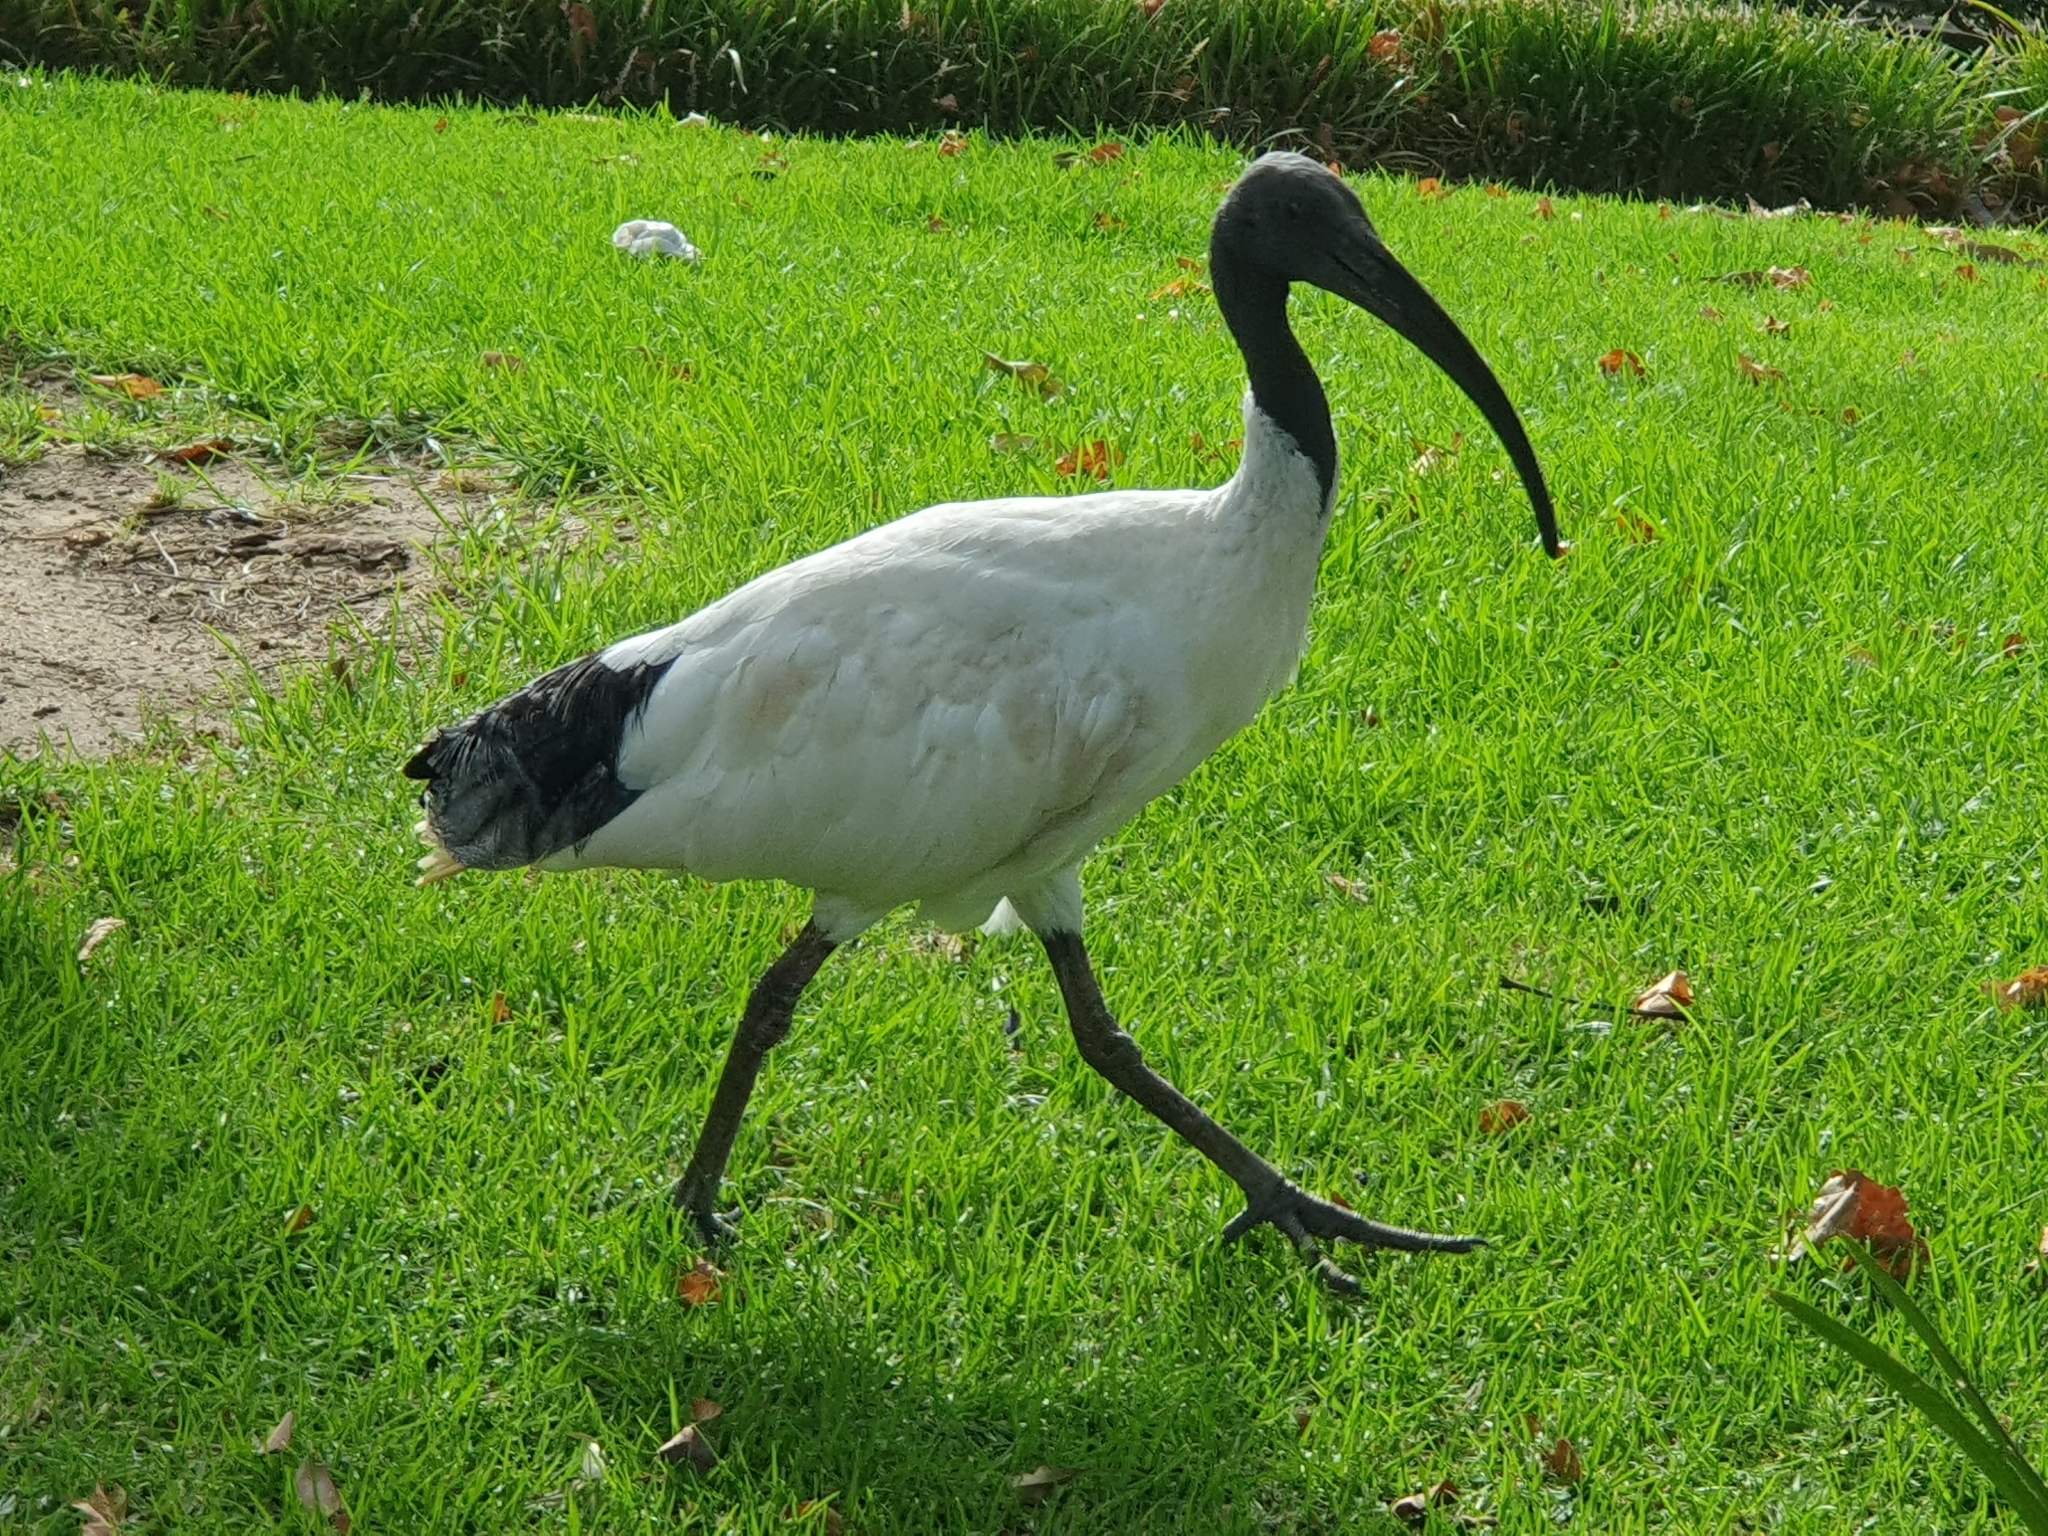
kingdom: Animalia
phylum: Chordata
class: Aves
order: Pelecaniformes
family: Threskiornithidae
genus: Threskiornis
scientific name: Threskiornis molucca
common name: Australian white ibis
